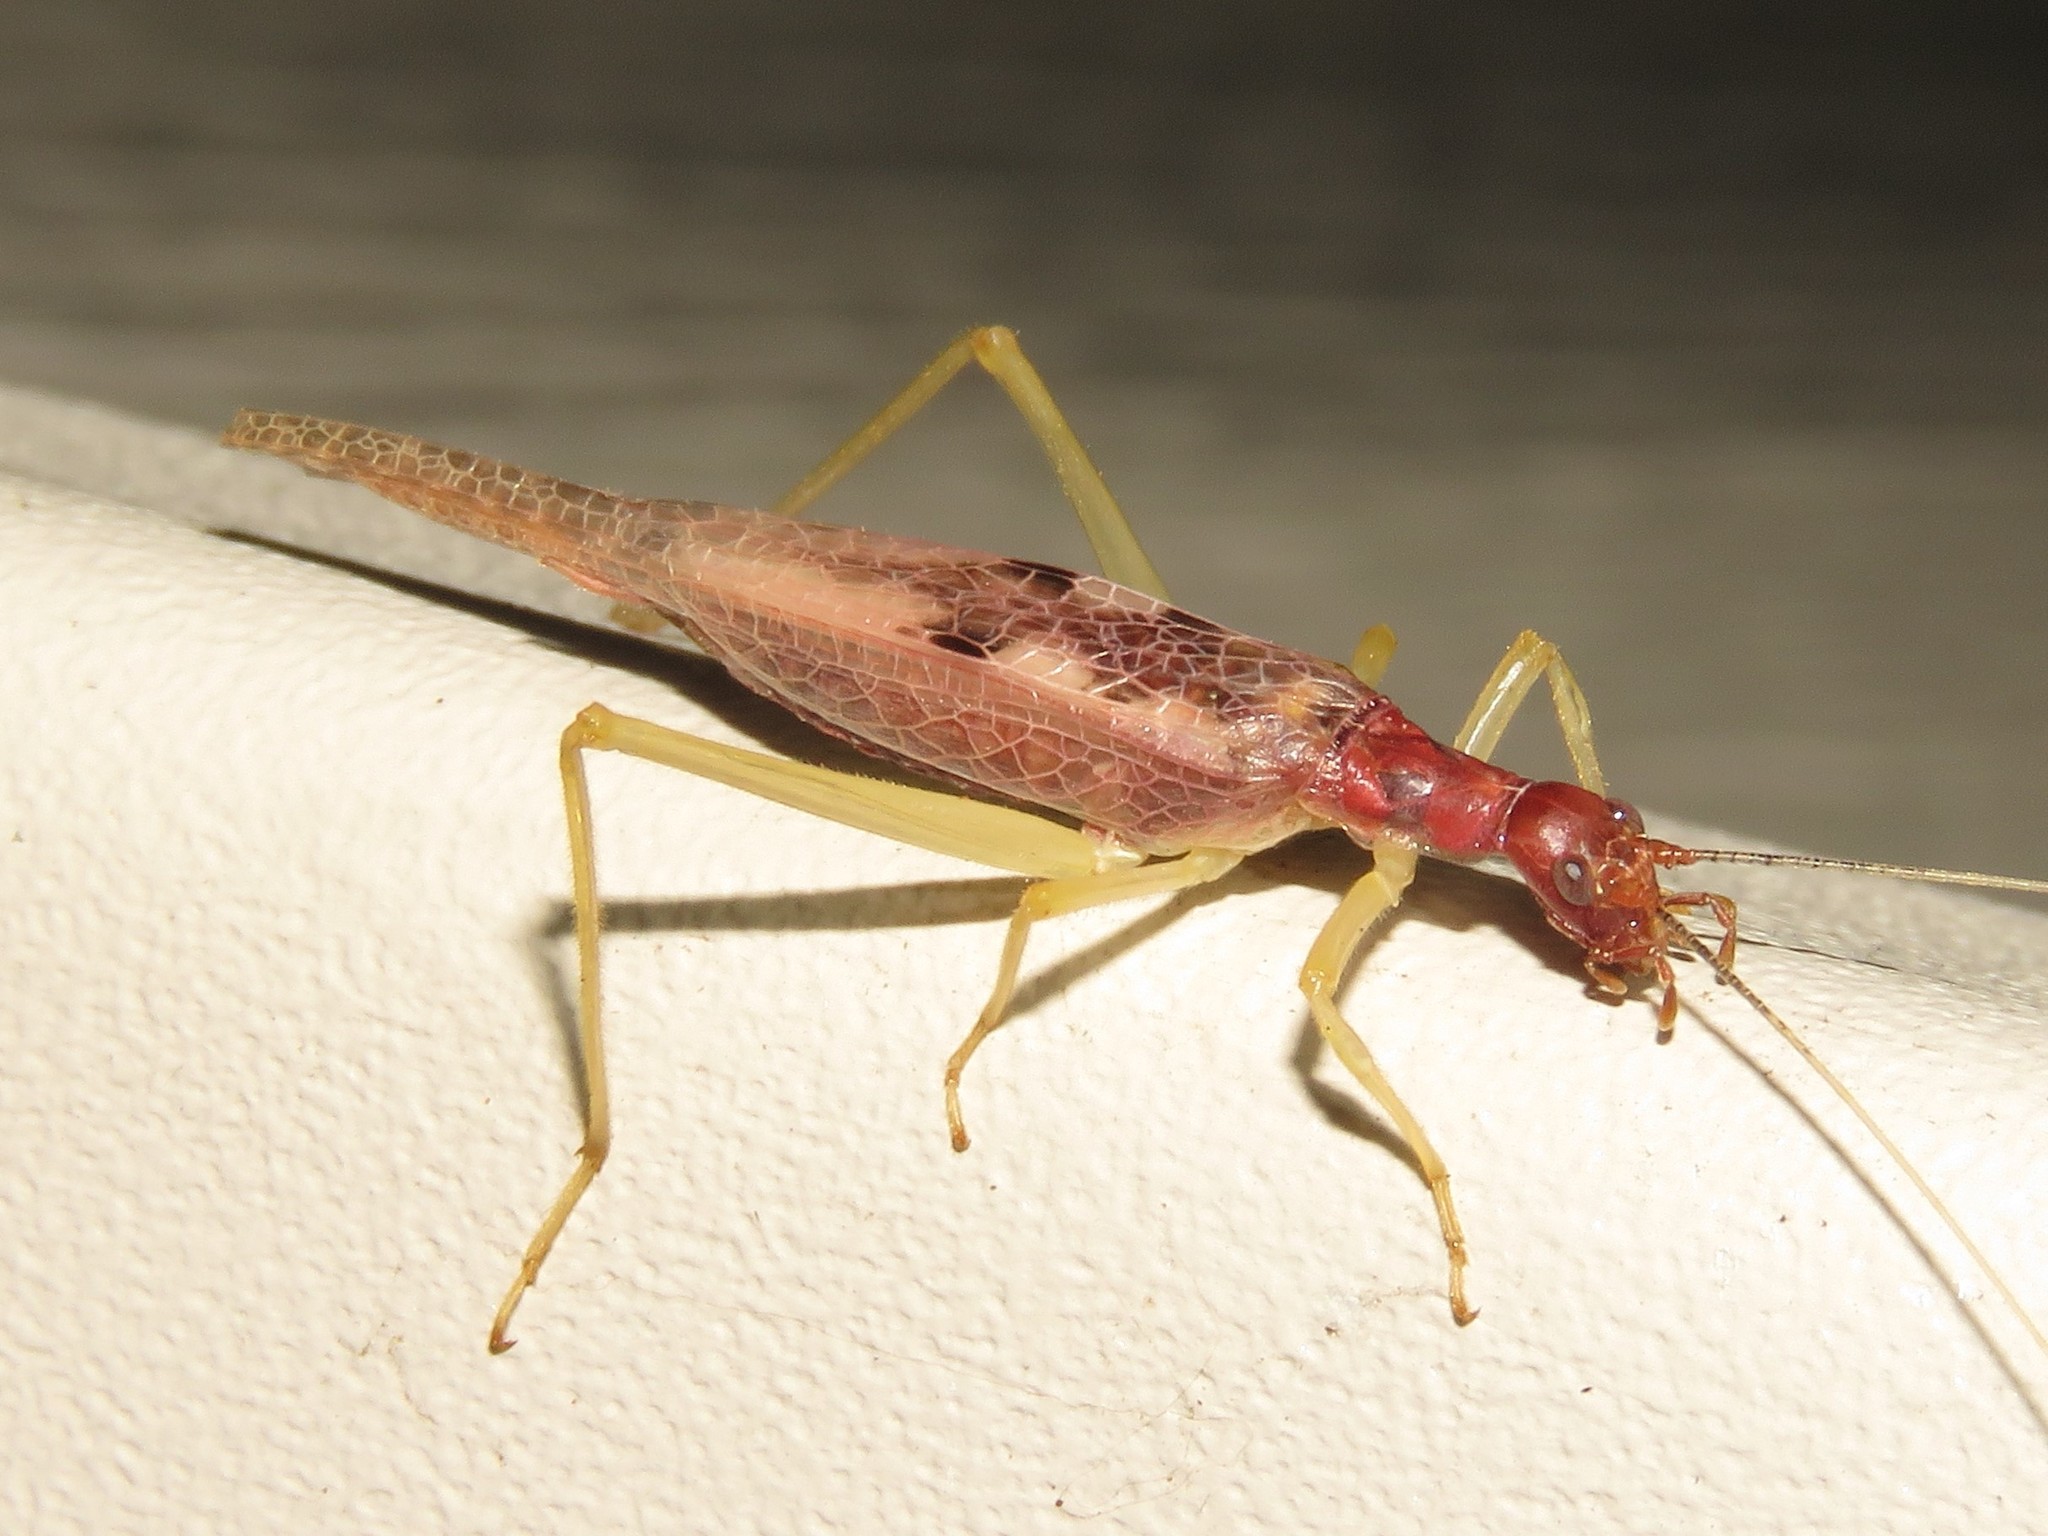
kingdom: Animalia
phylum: Arthropoda
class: Insecta
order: Orthoptera
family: Gryllidae
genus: Neoxabea
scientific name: Neoxabea bipunctata
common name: Two-spotted tree cricket
